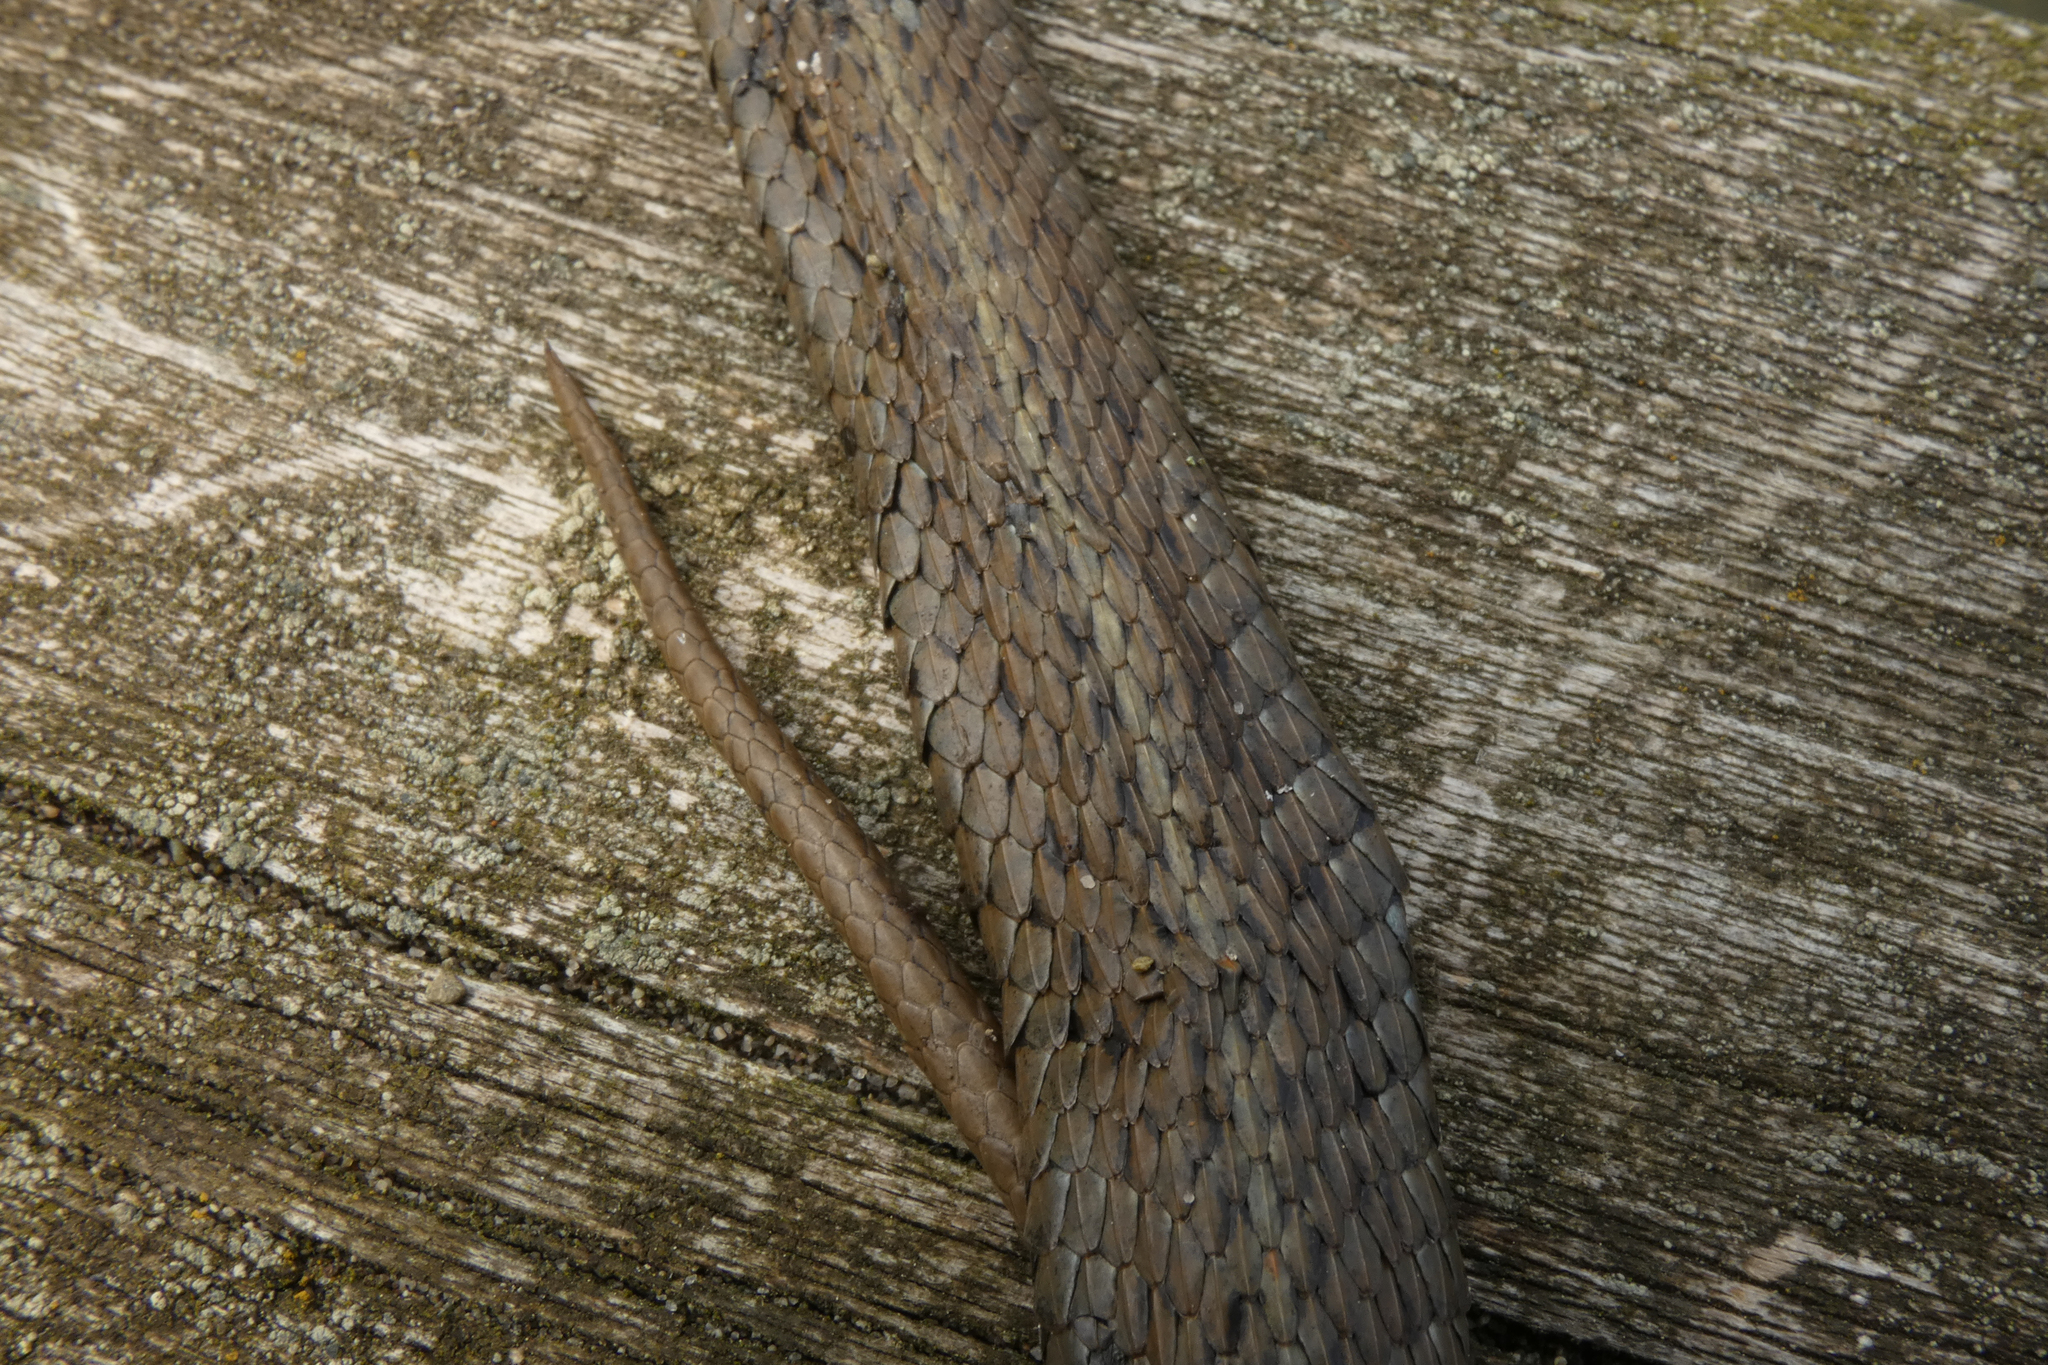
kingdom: Animalia
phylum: Chordata
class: Squamata
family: Colubridae
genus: Thamnophis
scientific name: Thamnophis ordinoides
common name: Northwestern garter snake
